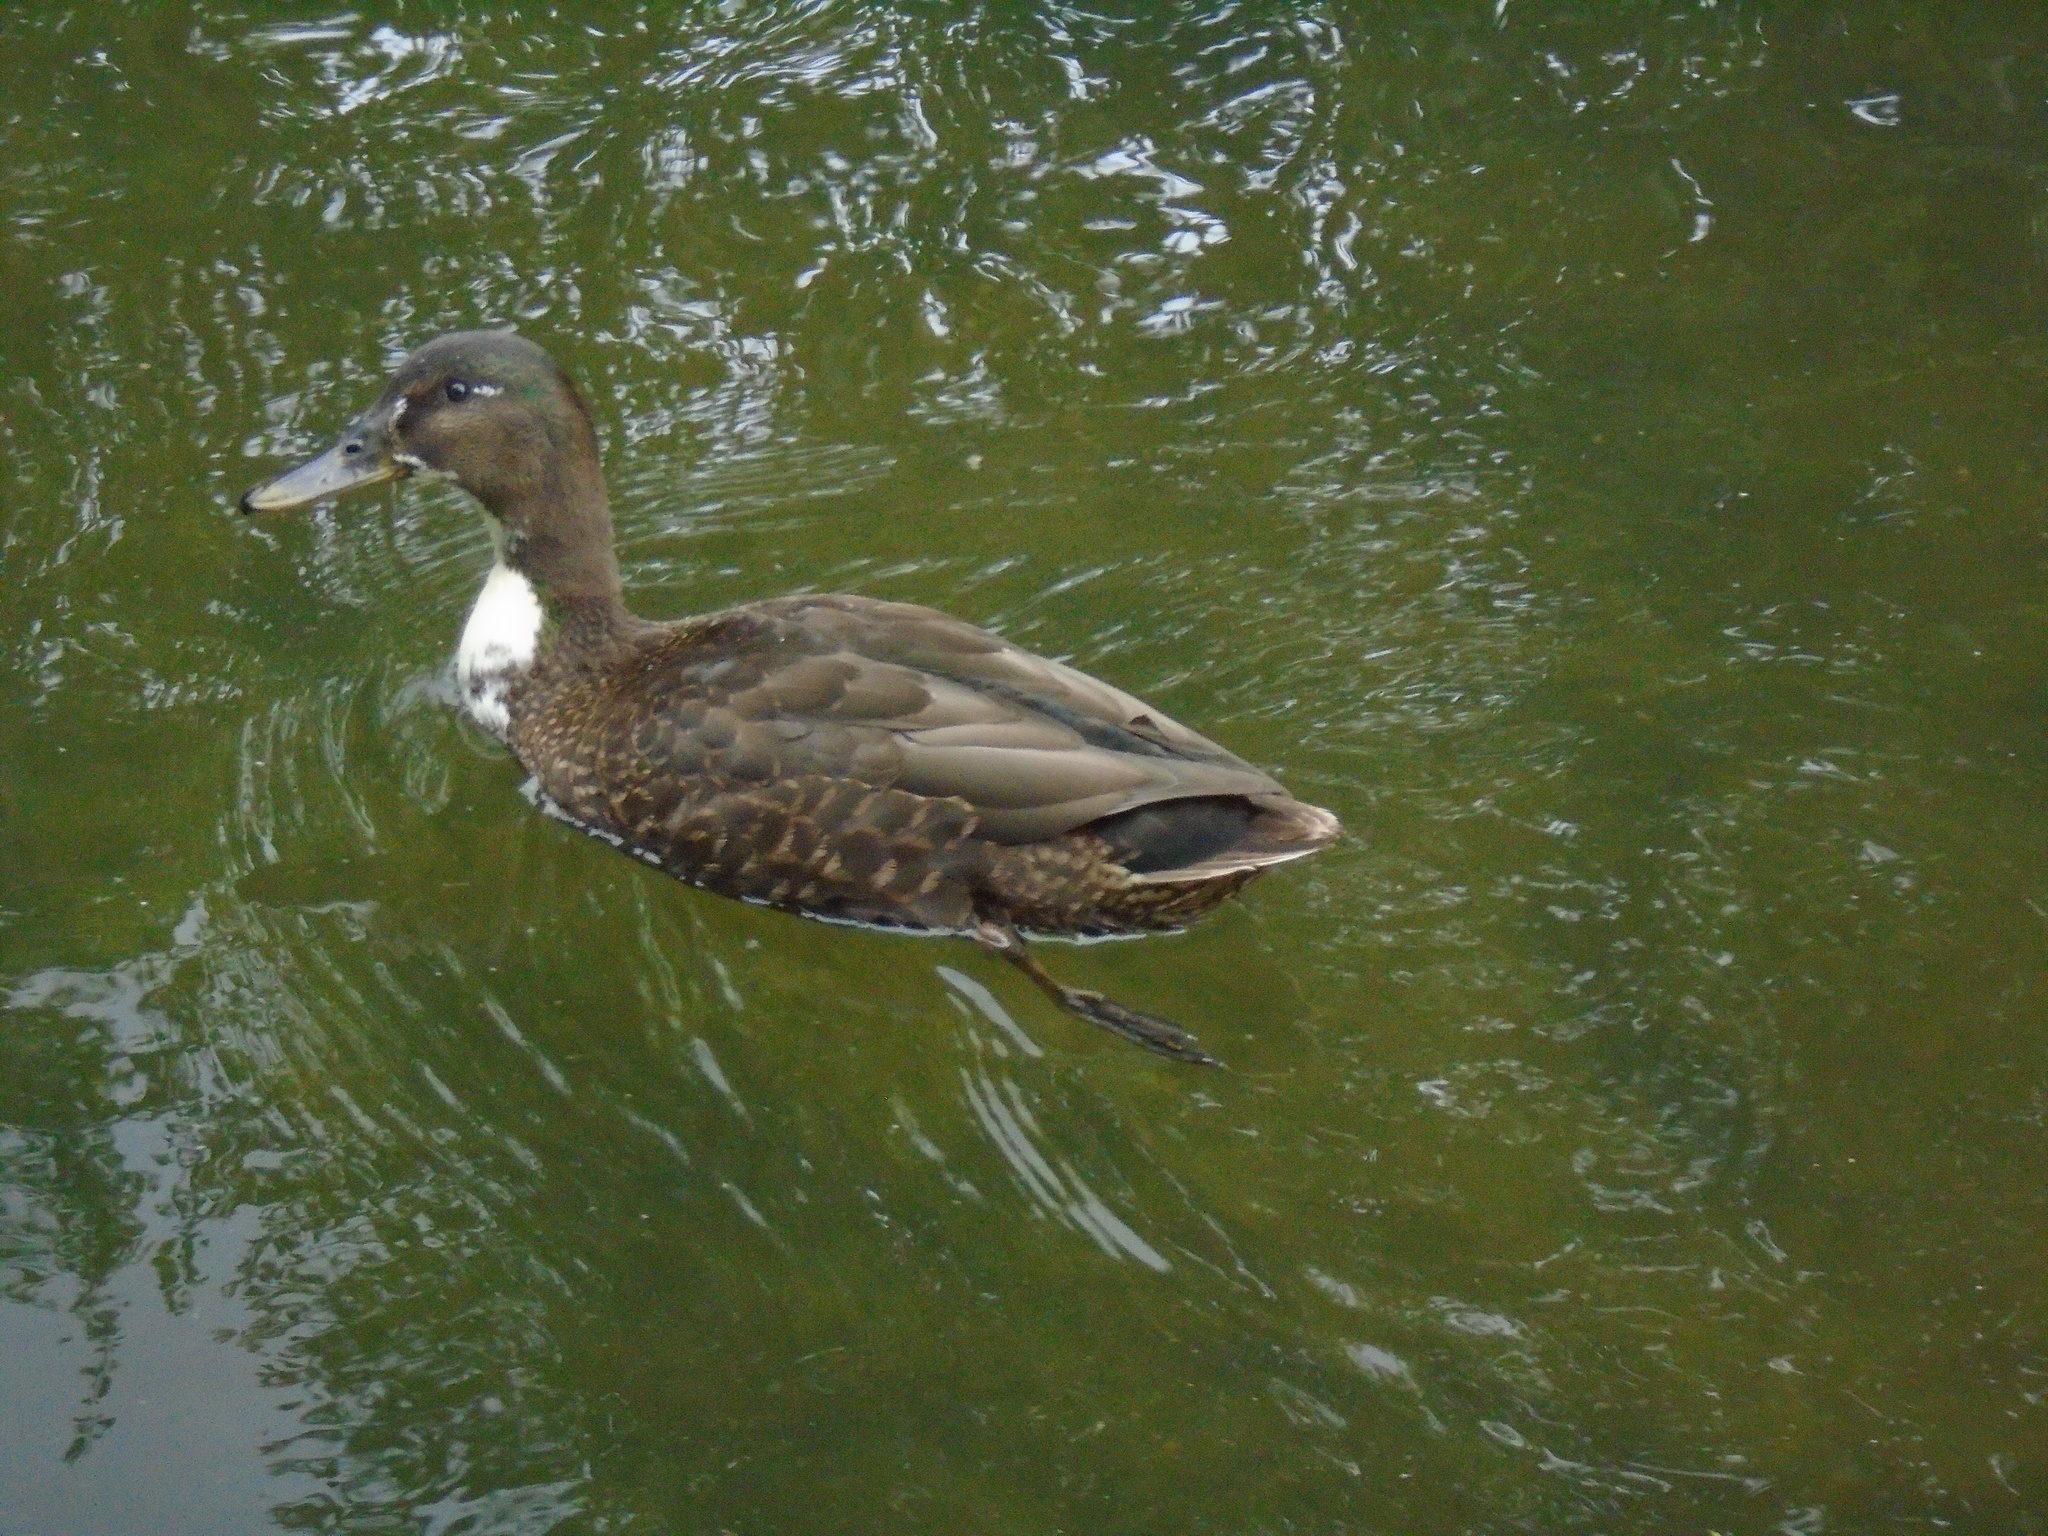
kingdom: Animalia
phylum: Chordata
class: Aves
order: Anseriformes
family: Anatidae
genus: Anas
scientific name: Anas platyrhynchos
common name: Mallard
